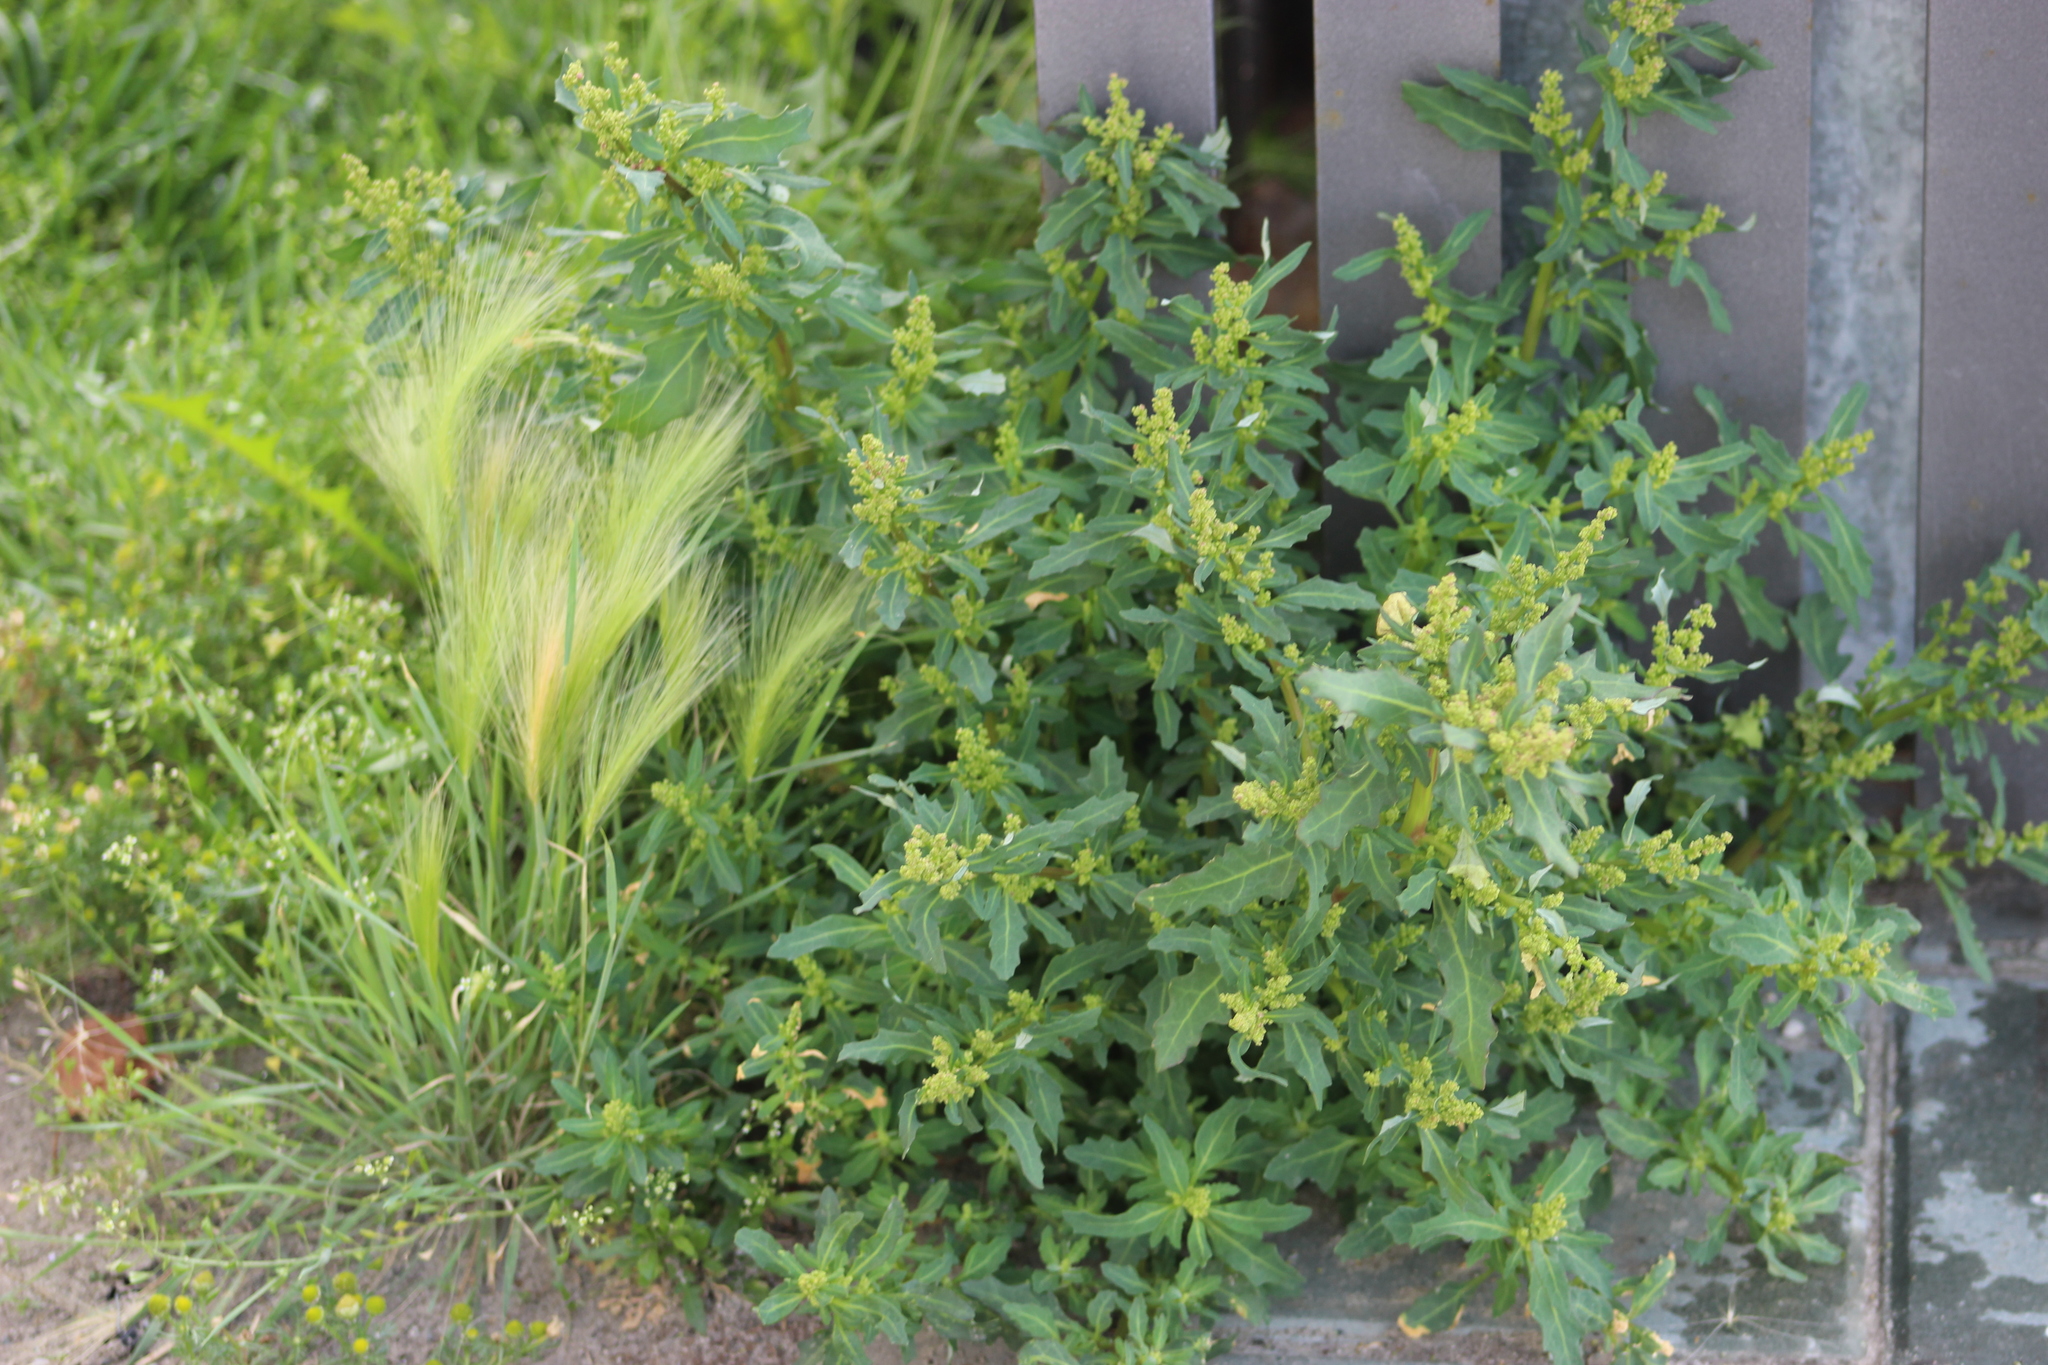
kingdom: Plantae
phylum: Tracheophyta
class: Magnoliopsida
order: Caryophyllales
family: Amaranthaceae
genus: Oxybasis
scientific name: Oxybasis glauca
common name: Glaucous goosefoot
